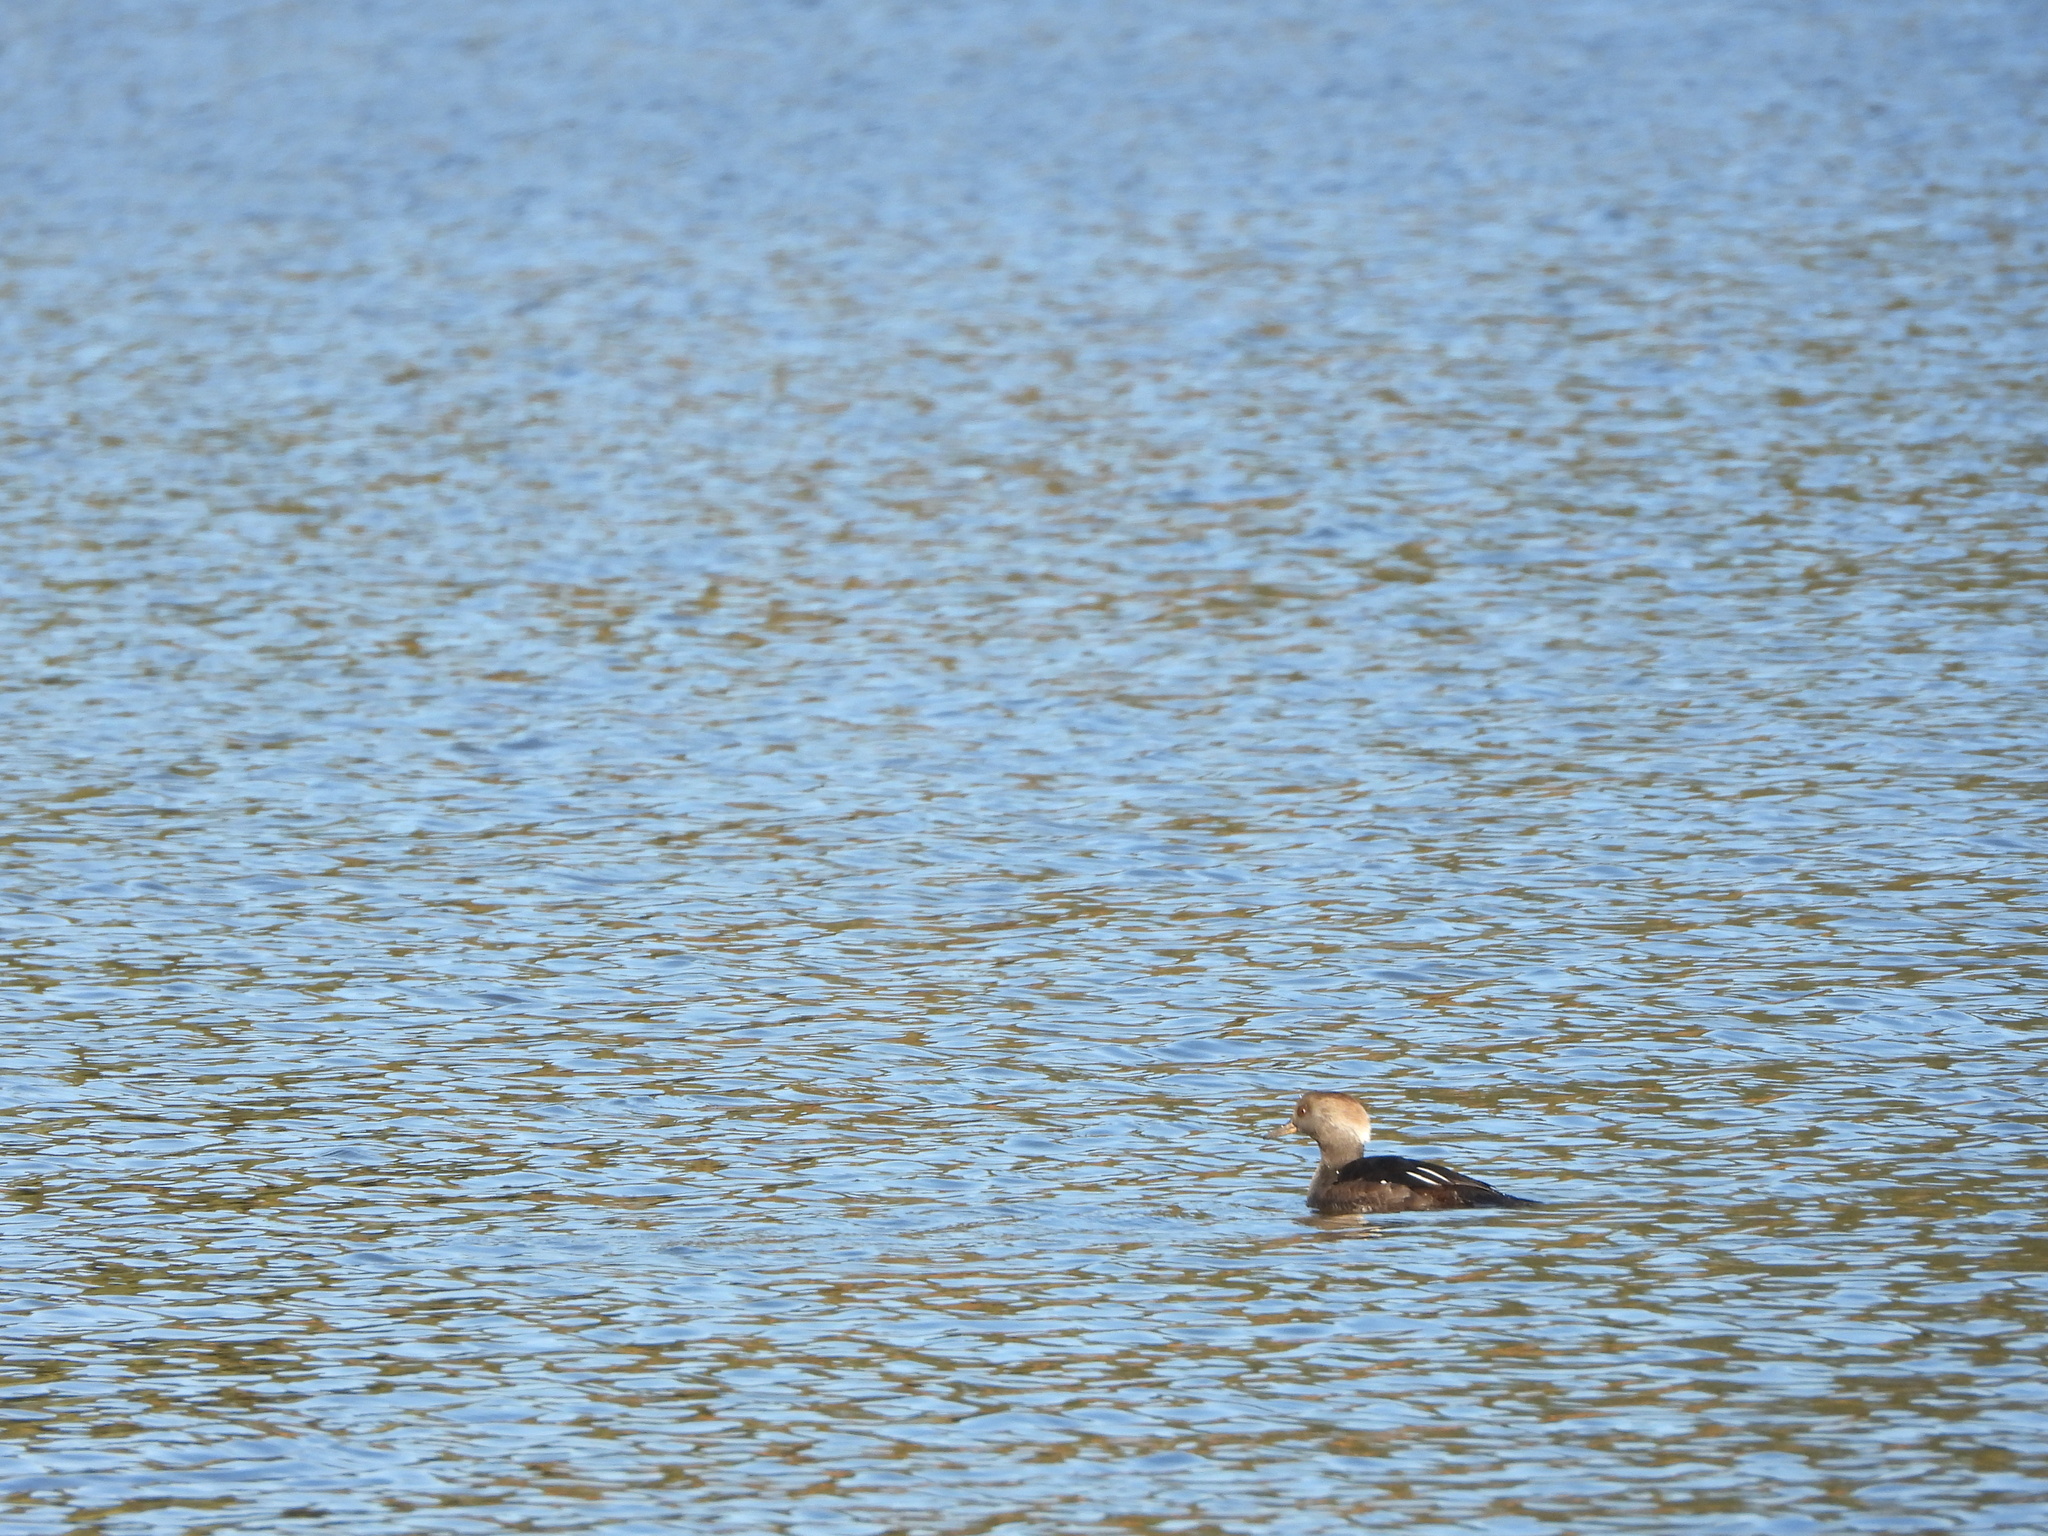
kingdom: Animalia
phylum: Chordata
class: Aves
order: Anseriformes
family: Anatidae
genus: Lophodytes
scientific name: Lophodytes cucullatus
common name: Hooded merganser
